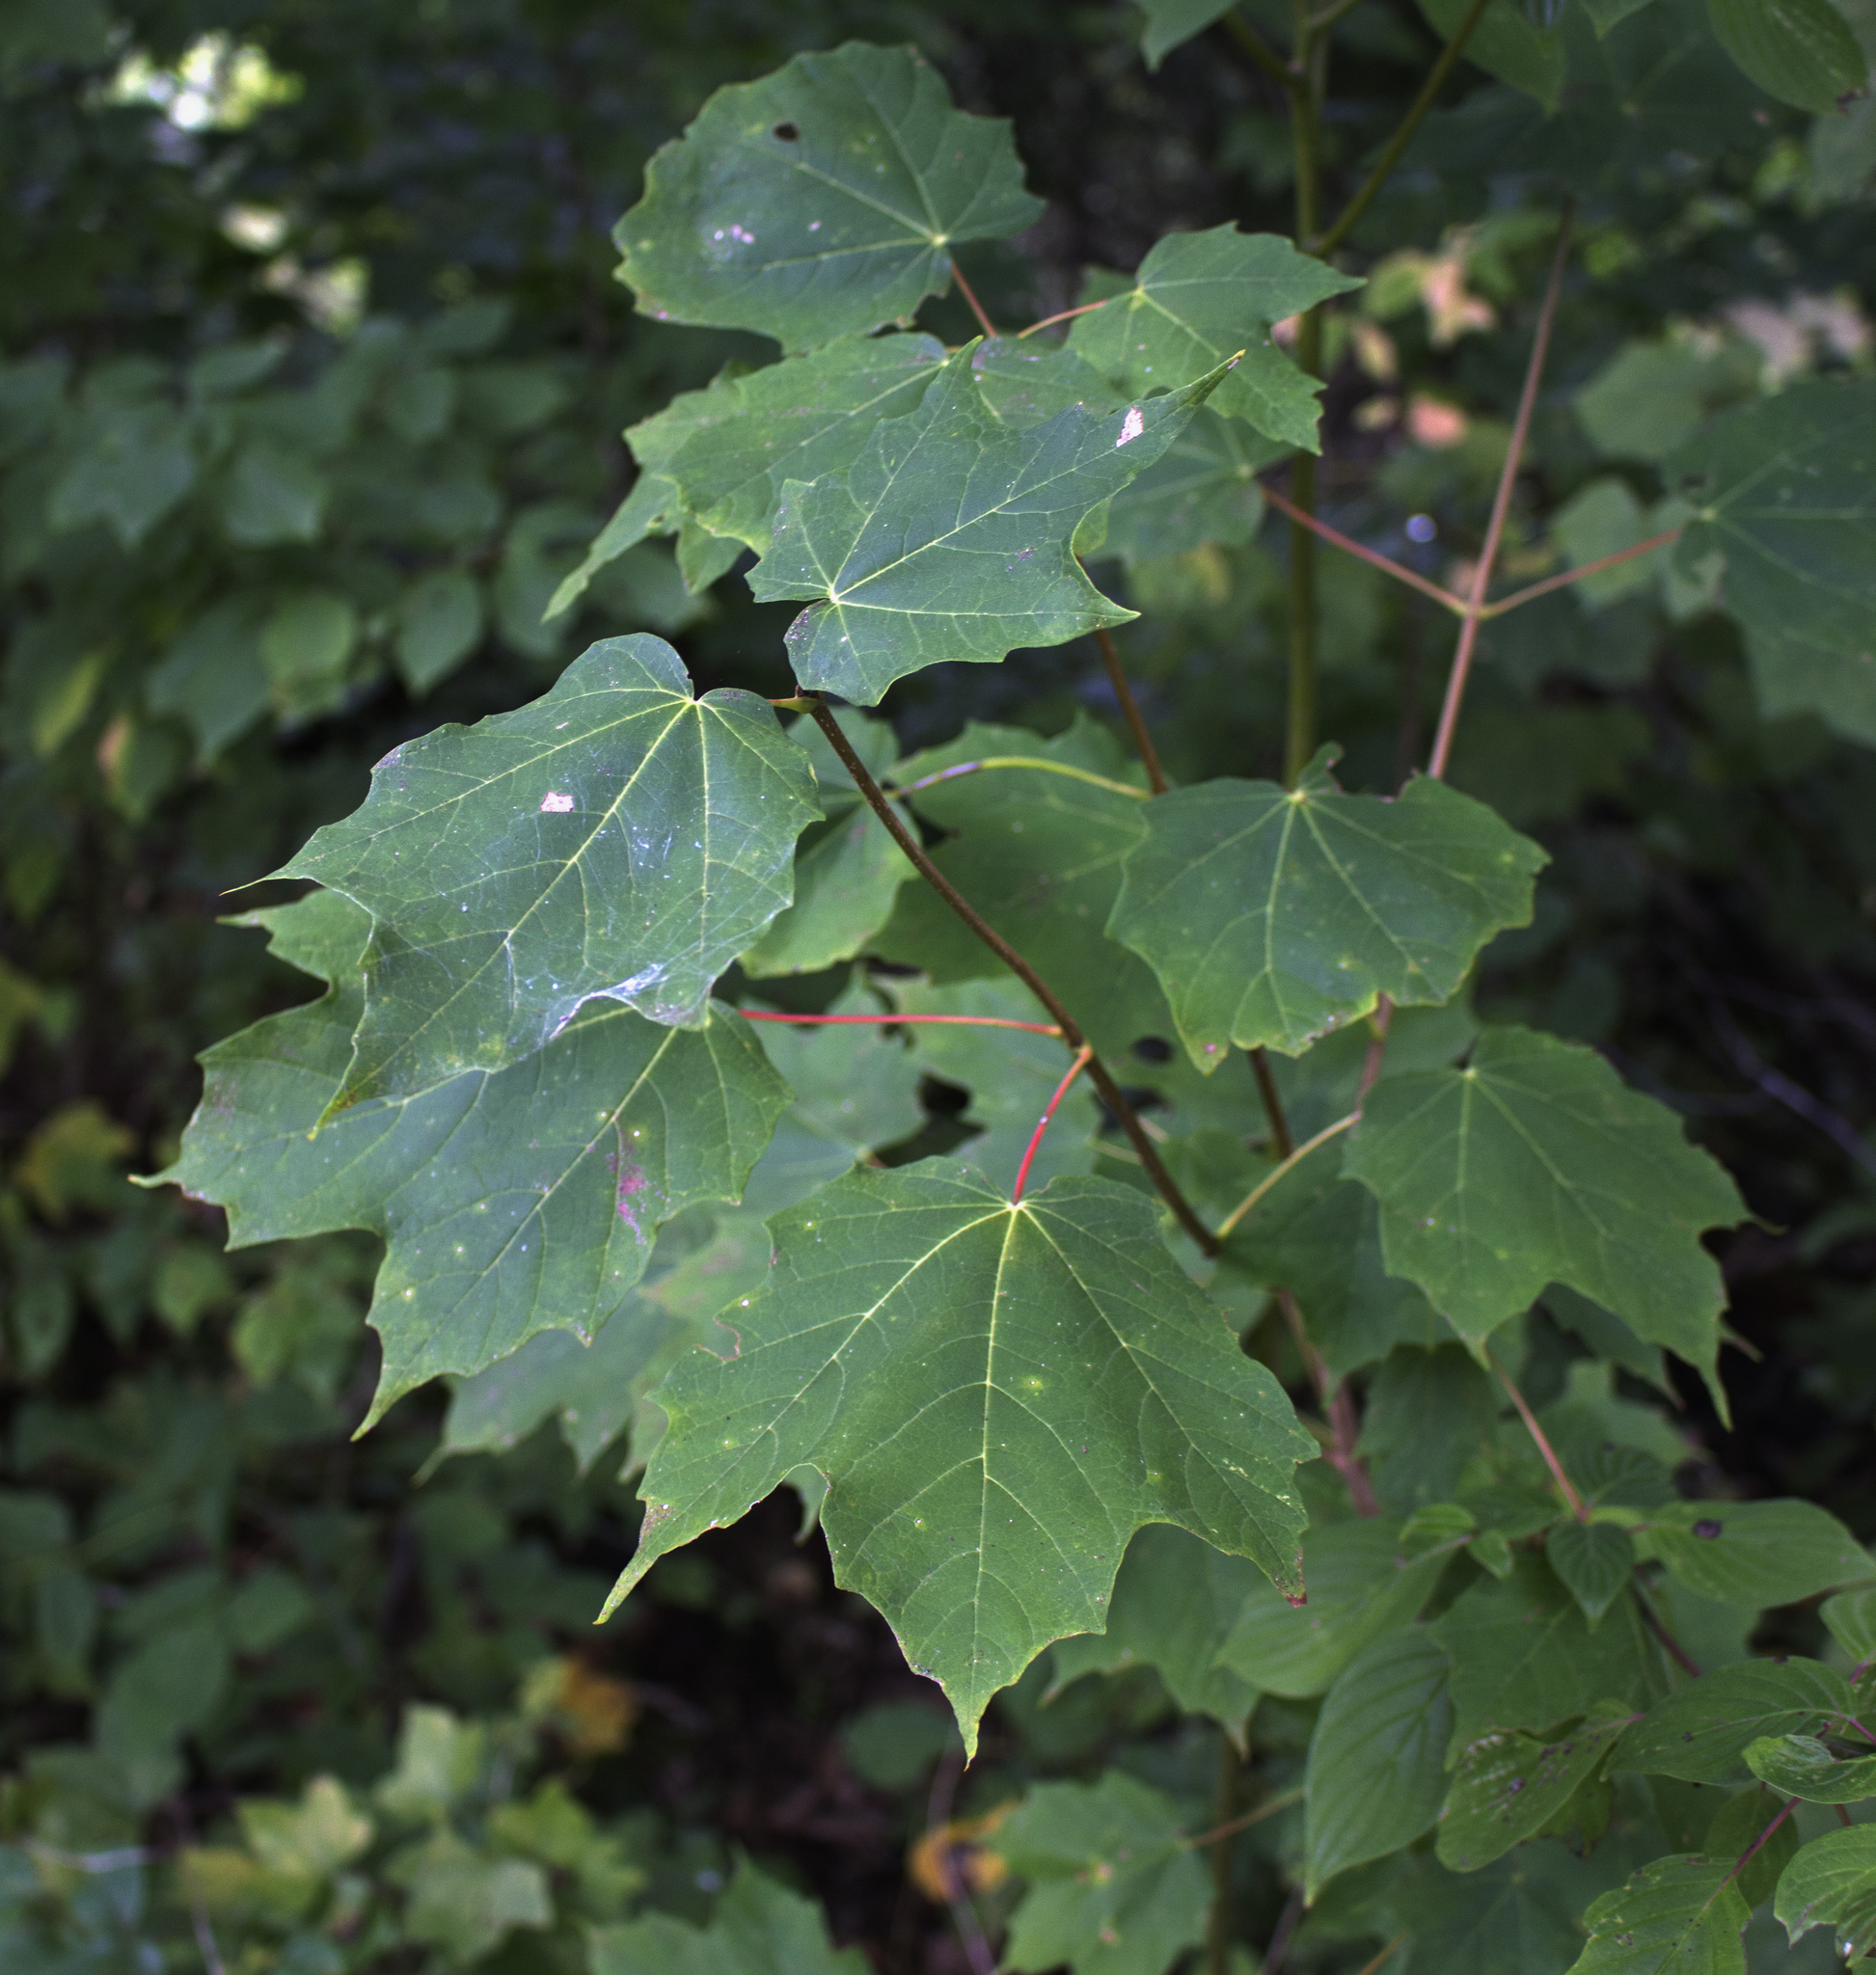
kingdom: Plantae
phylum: Tracheophyta
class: Magnoliopsida
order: Sapindales
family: Sapindaceae
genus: Acer
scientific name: Acer rubrum
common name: Red maple
